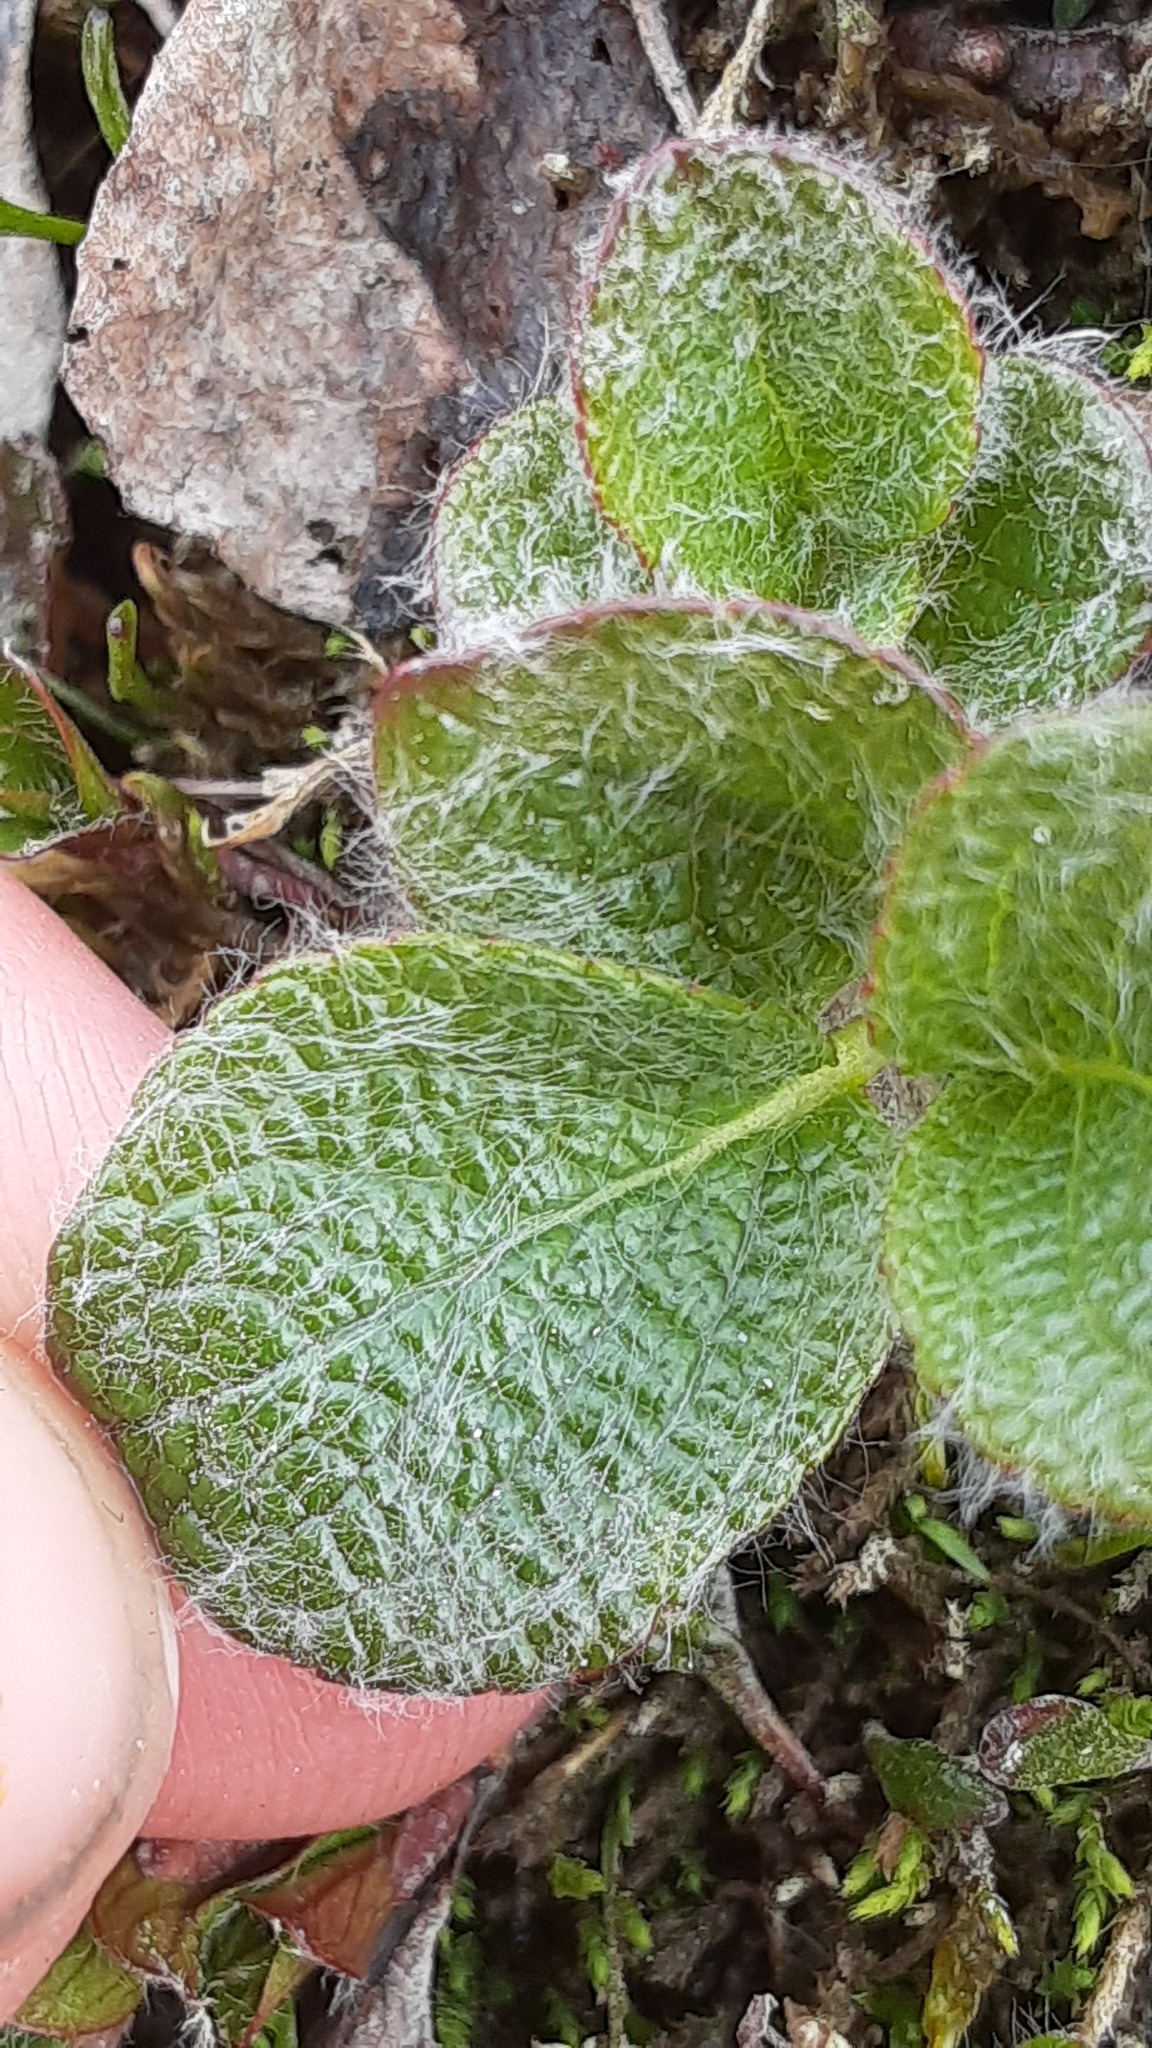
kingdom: Plantae
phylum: Tracheophyta
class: Magnoliopsida
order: Malpighiales
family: Salicaceae
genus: Salix
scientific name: Salix reticulata
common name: Net-leaved willow
